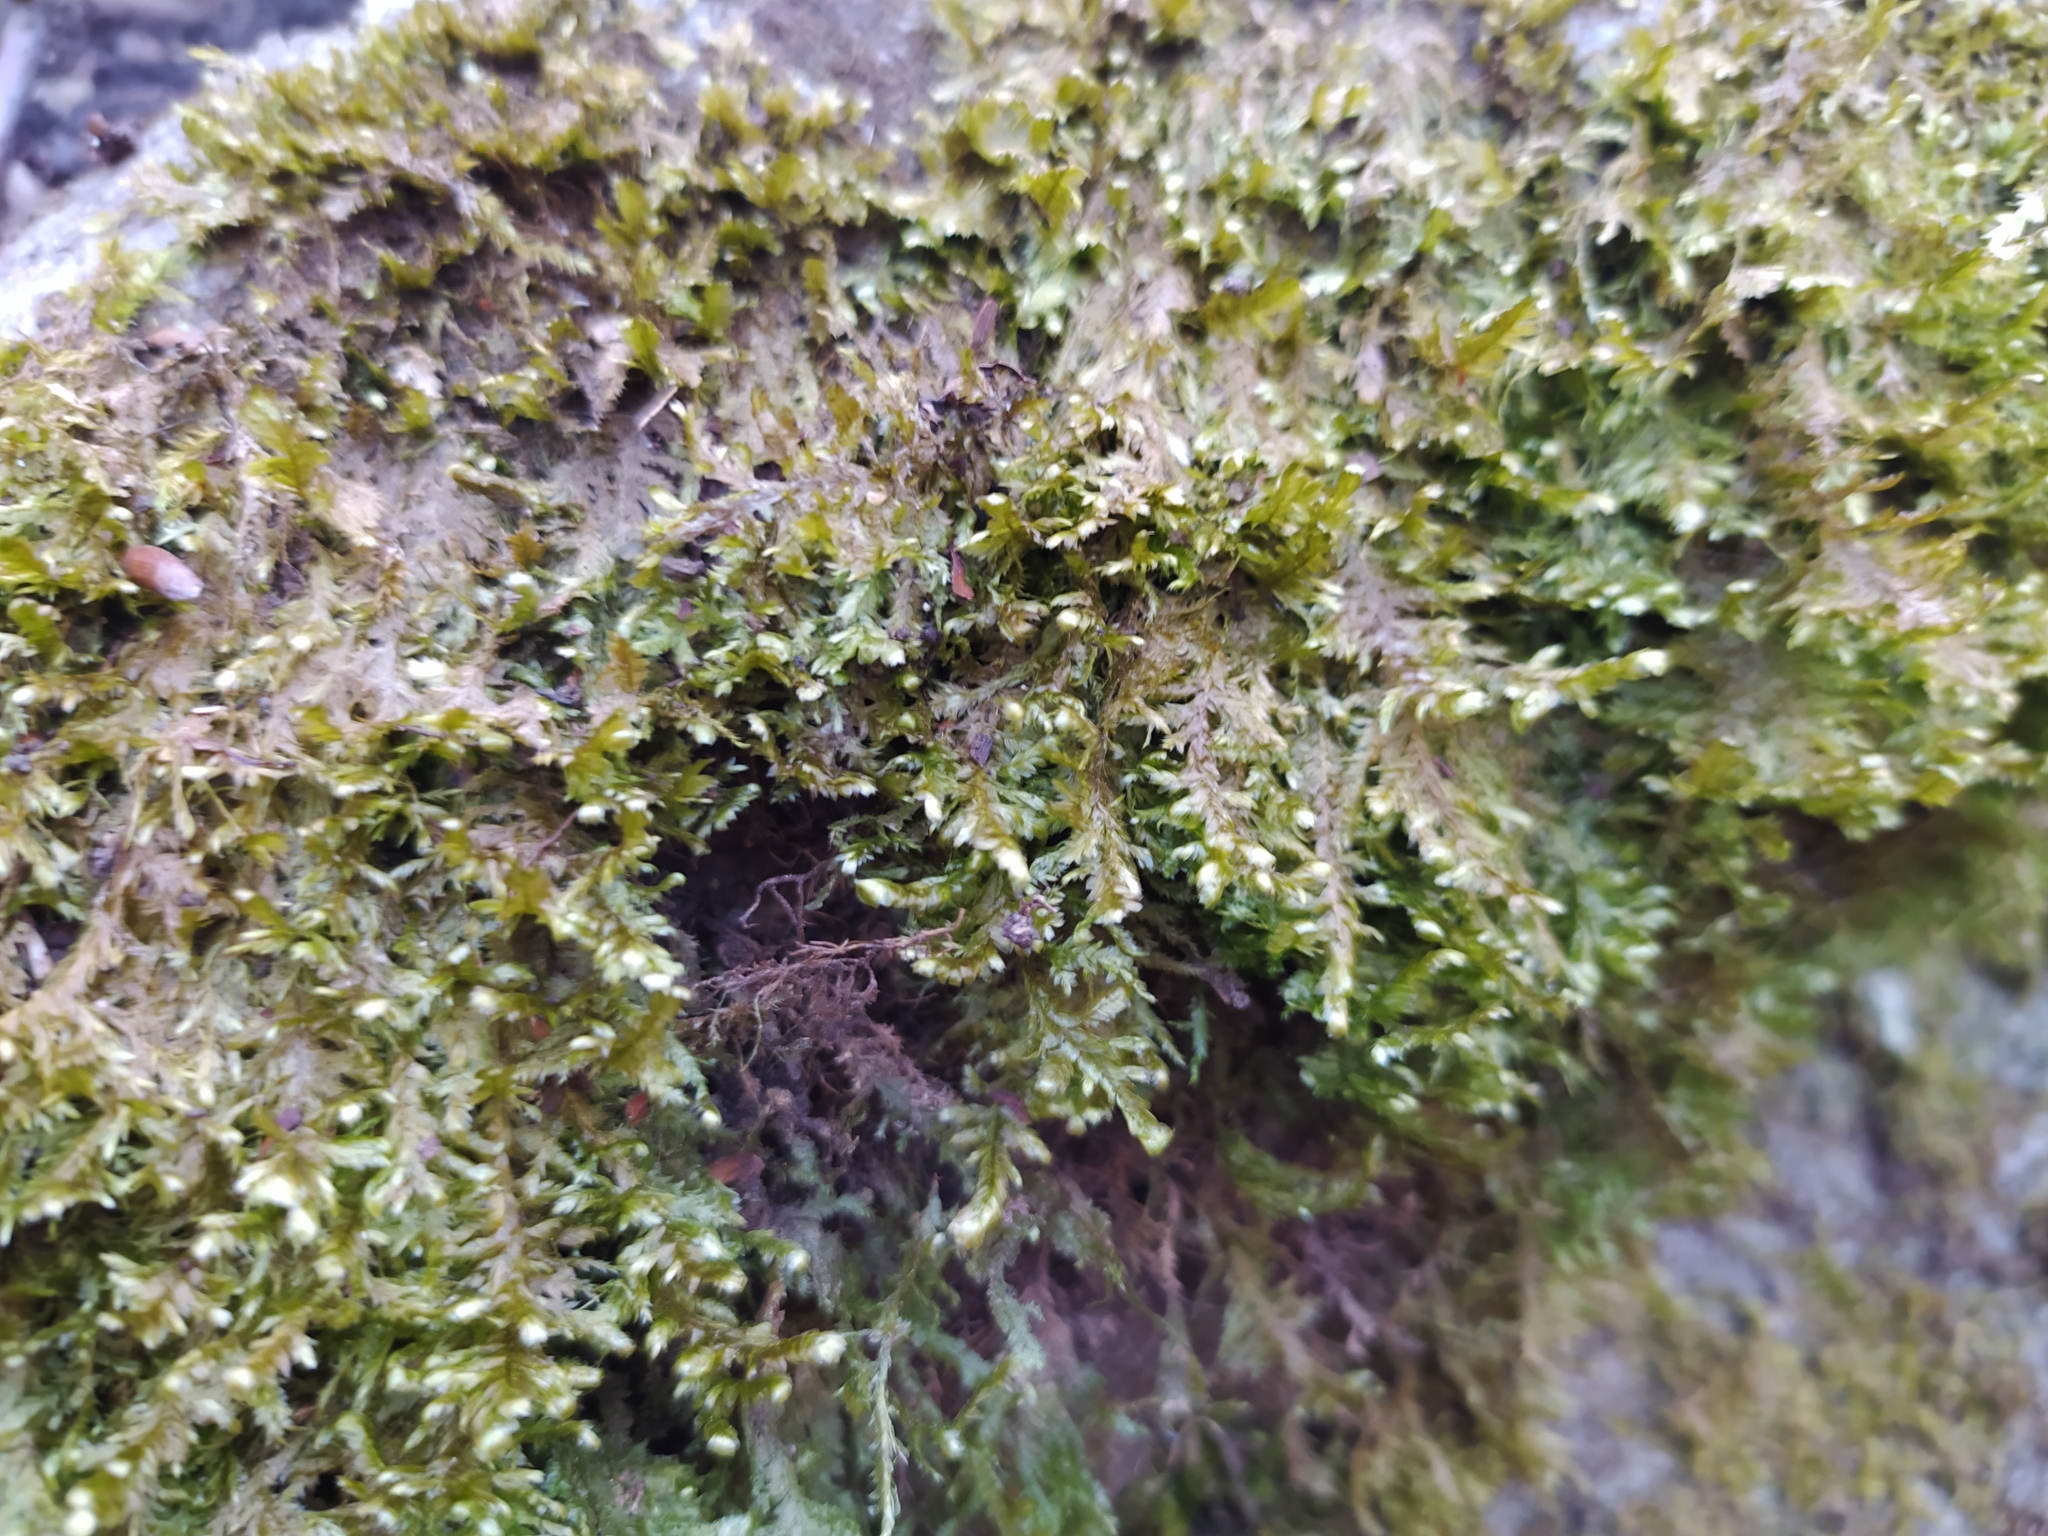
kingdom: Plantae
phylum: Bryophyta
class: Bryopsida
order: Hypnales
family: Neckeraceae
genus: Alleniella
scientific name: Alleniella complanata
